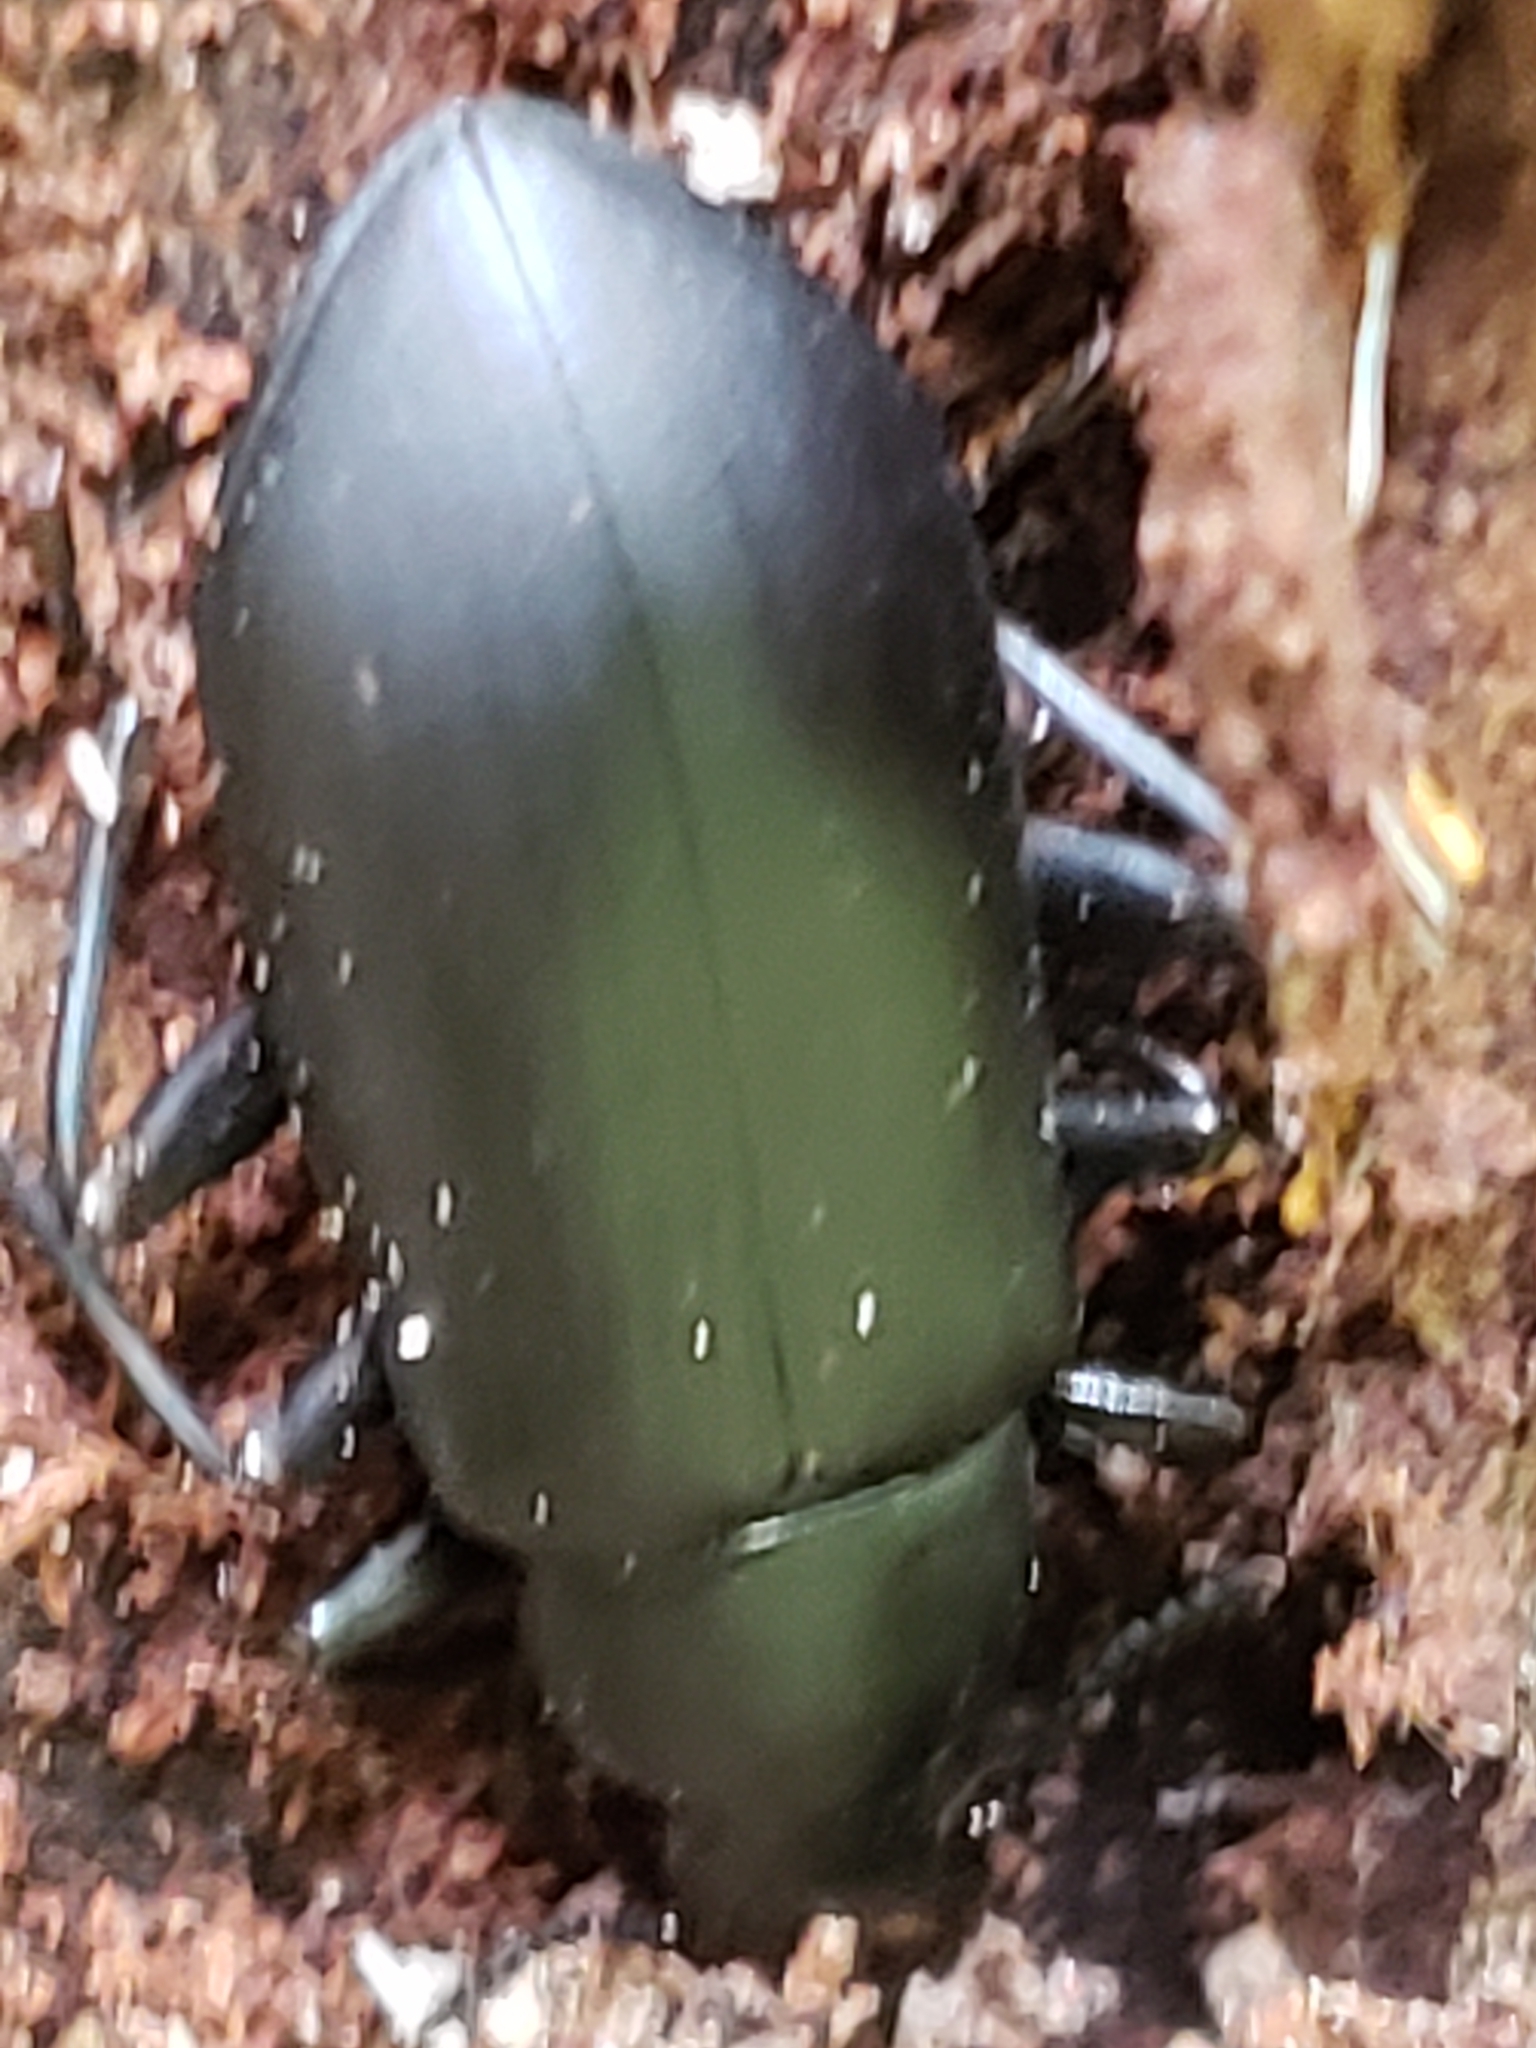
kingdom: Animalia
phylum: Arthropoda
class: Insecta
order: Coleoptera
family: Tenebrionidae
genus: Alobates
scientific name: Alobates
